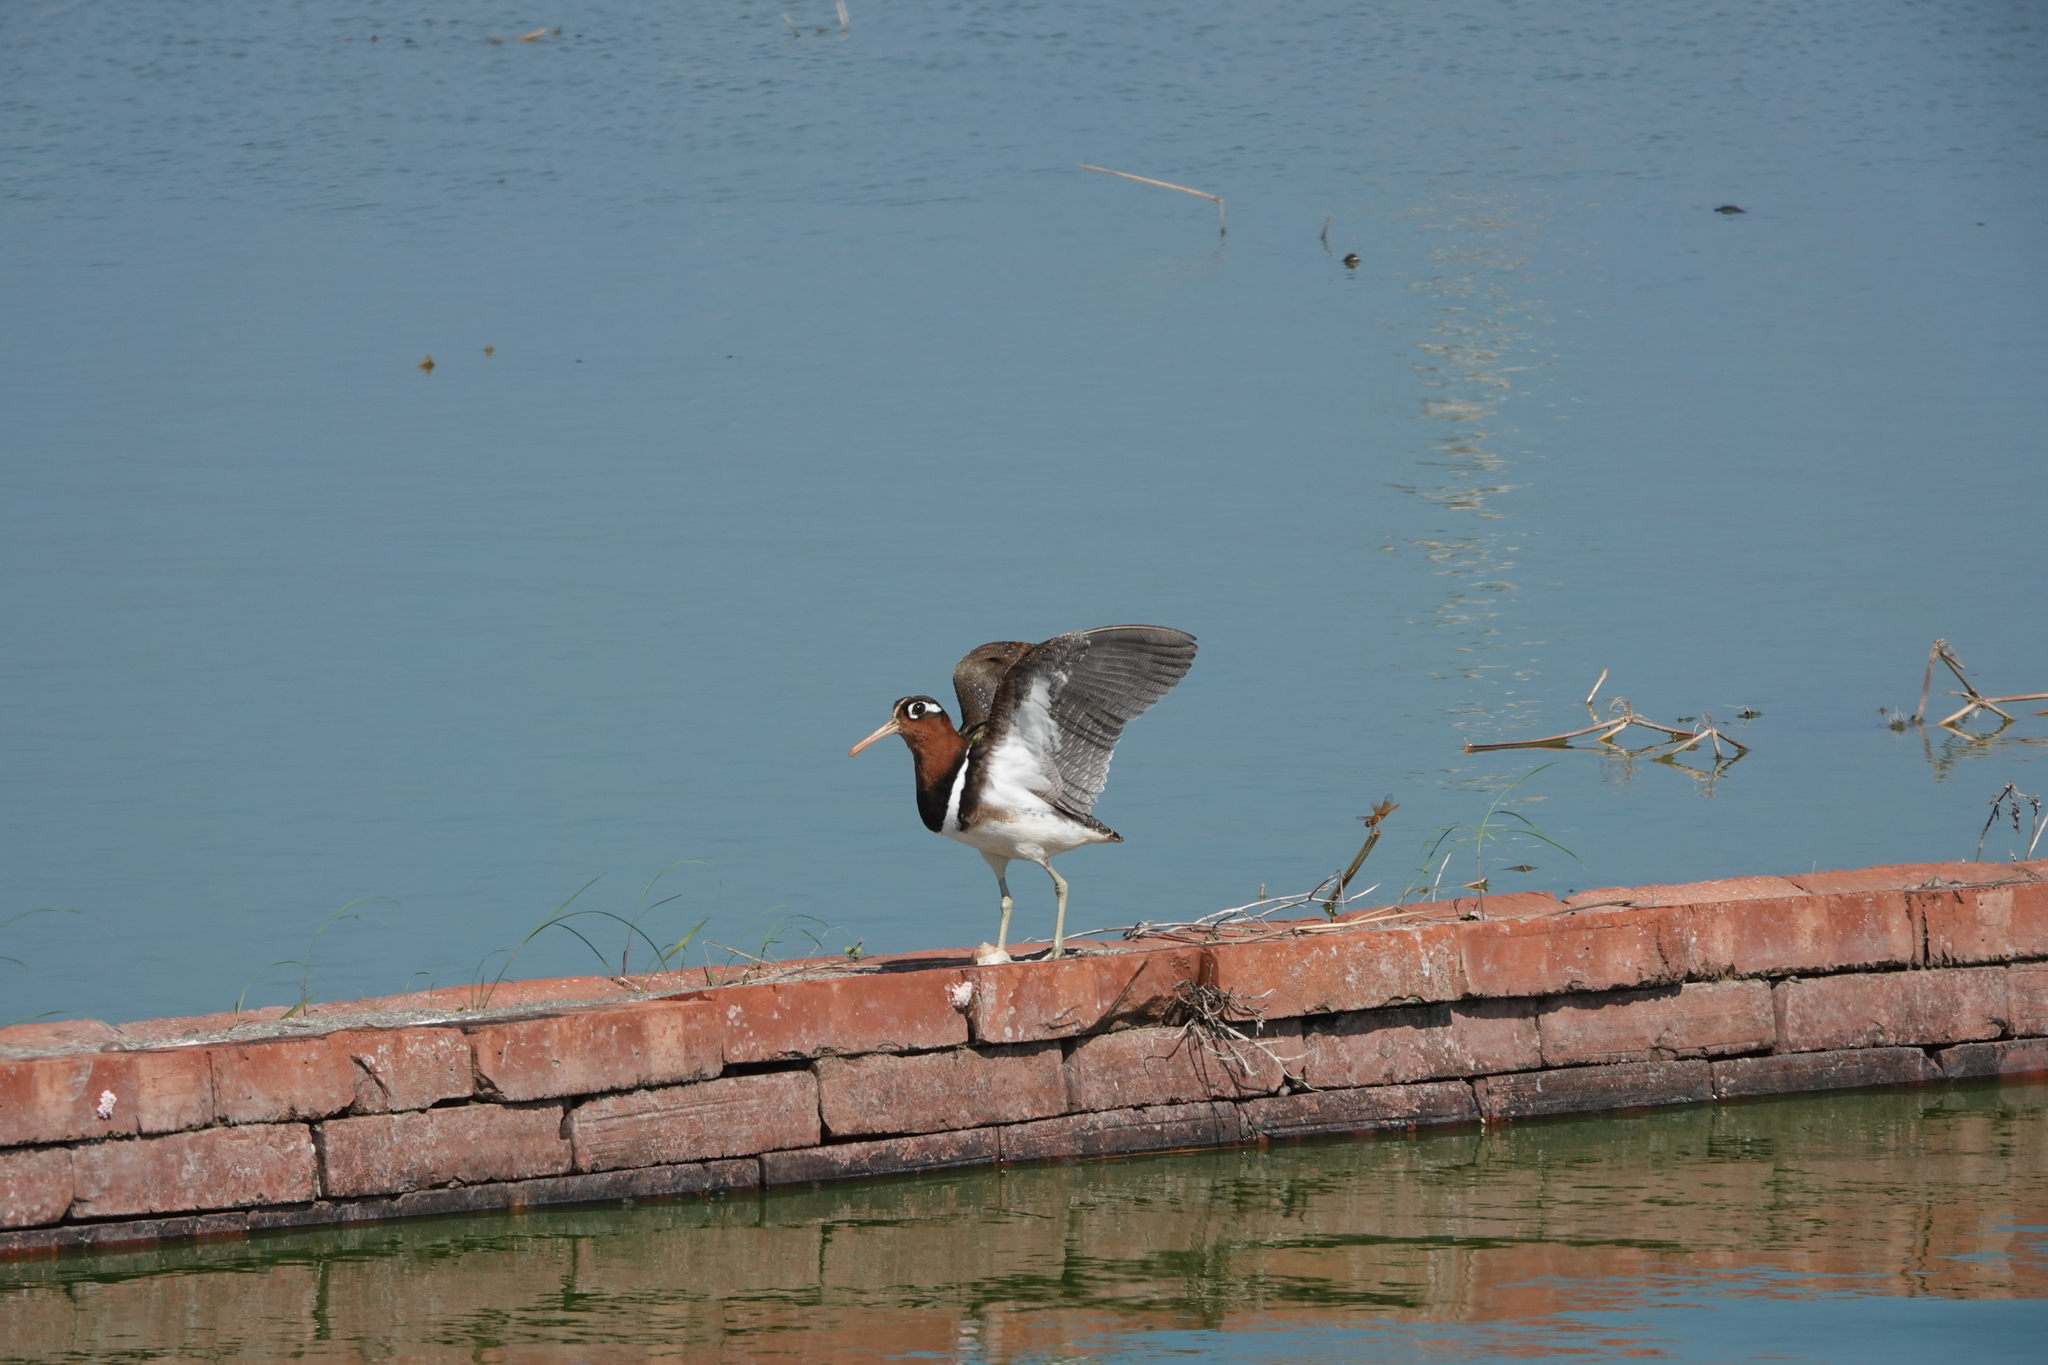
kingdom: Animalia
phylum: Chordata
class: Aves
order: Charadriiformes
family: Rostratulidae
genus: Rostratula
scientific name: Rostratula benghalensis
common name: Greater painted-snipe
